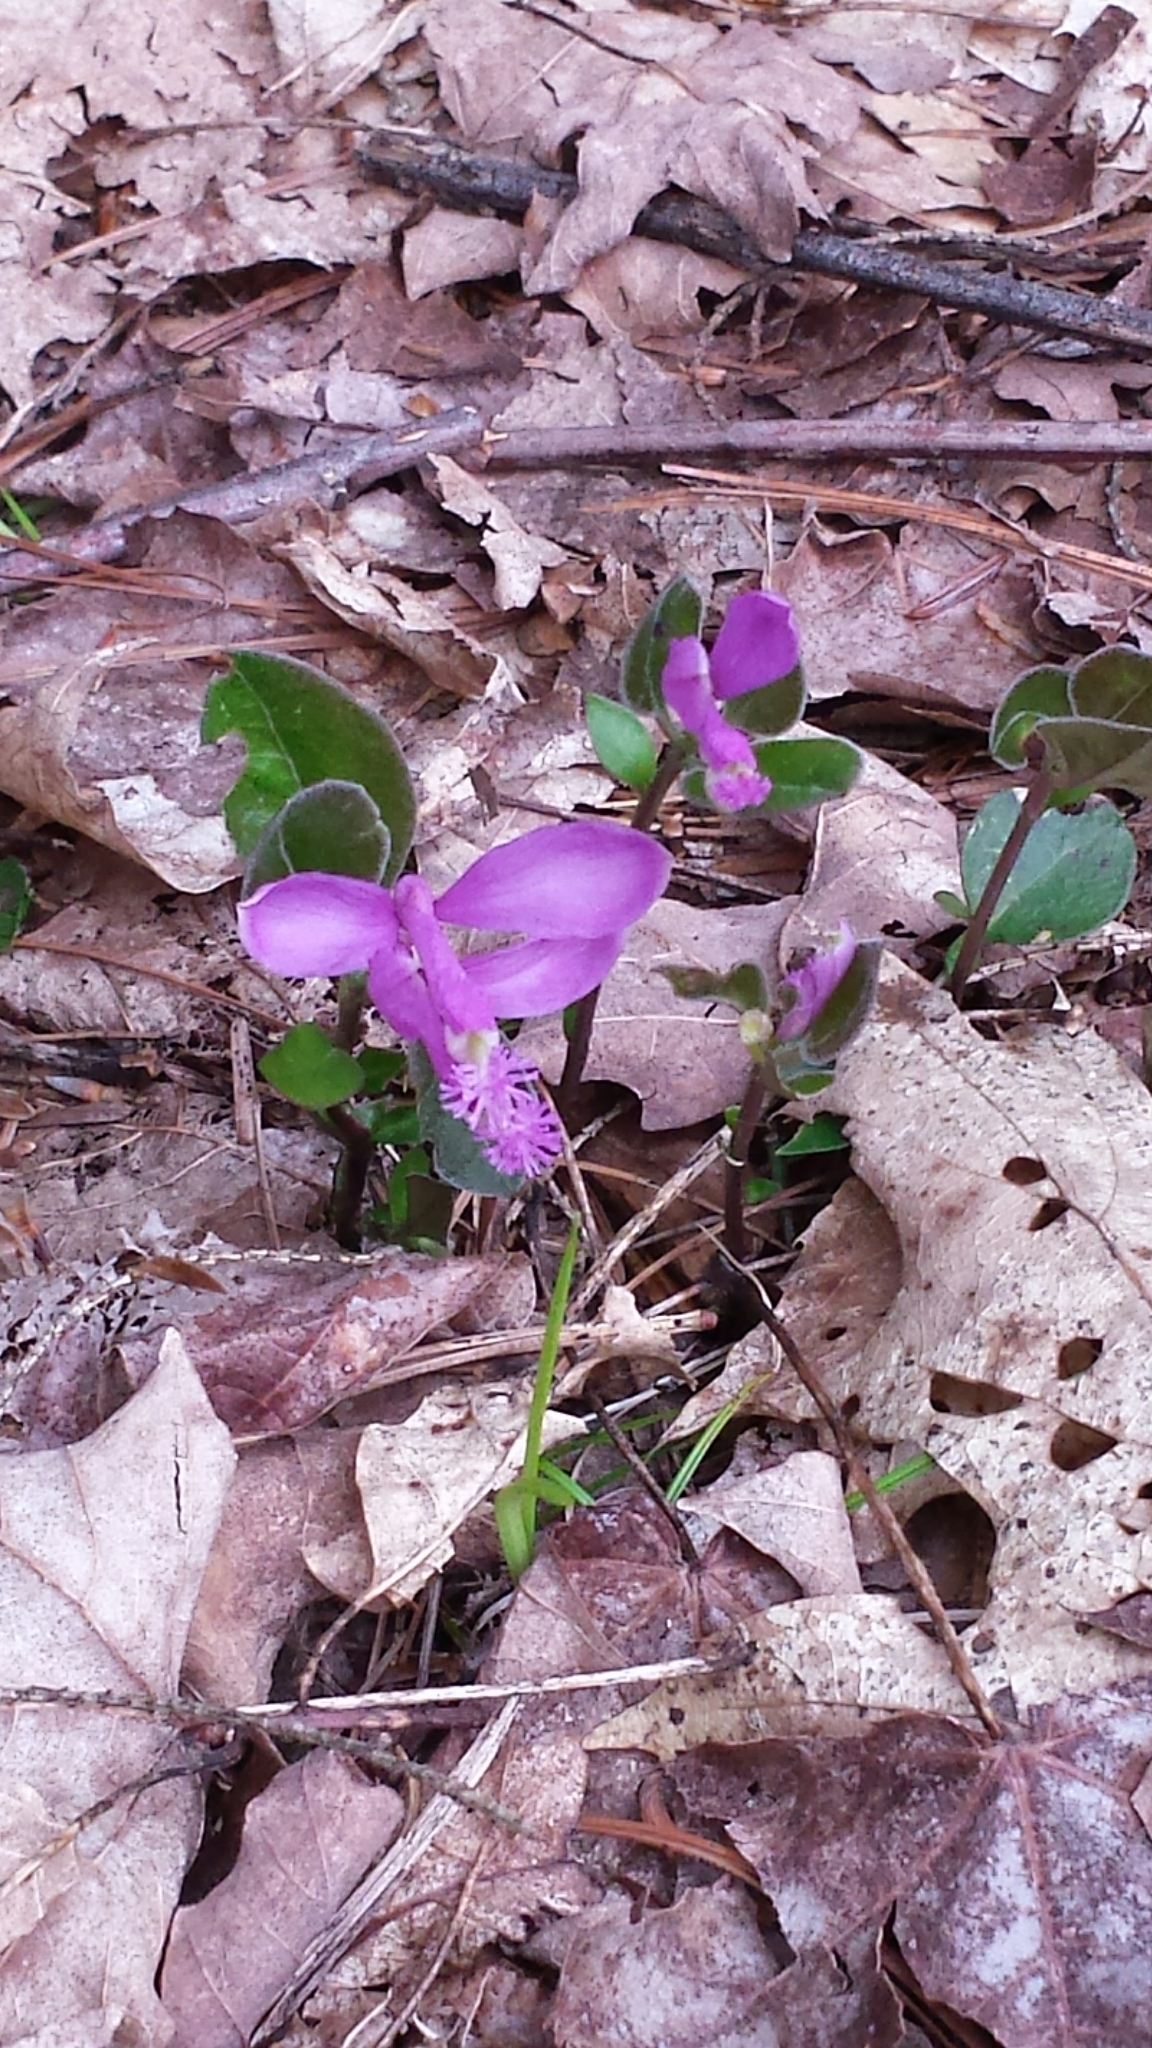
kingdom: Plantae
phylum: Tracheophyta
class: Magnoliopsida
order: Fabales
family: Polygalaceae
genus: Polygaloides
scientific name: Polygaloides paucifolia
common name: Bird-on-the-wing
